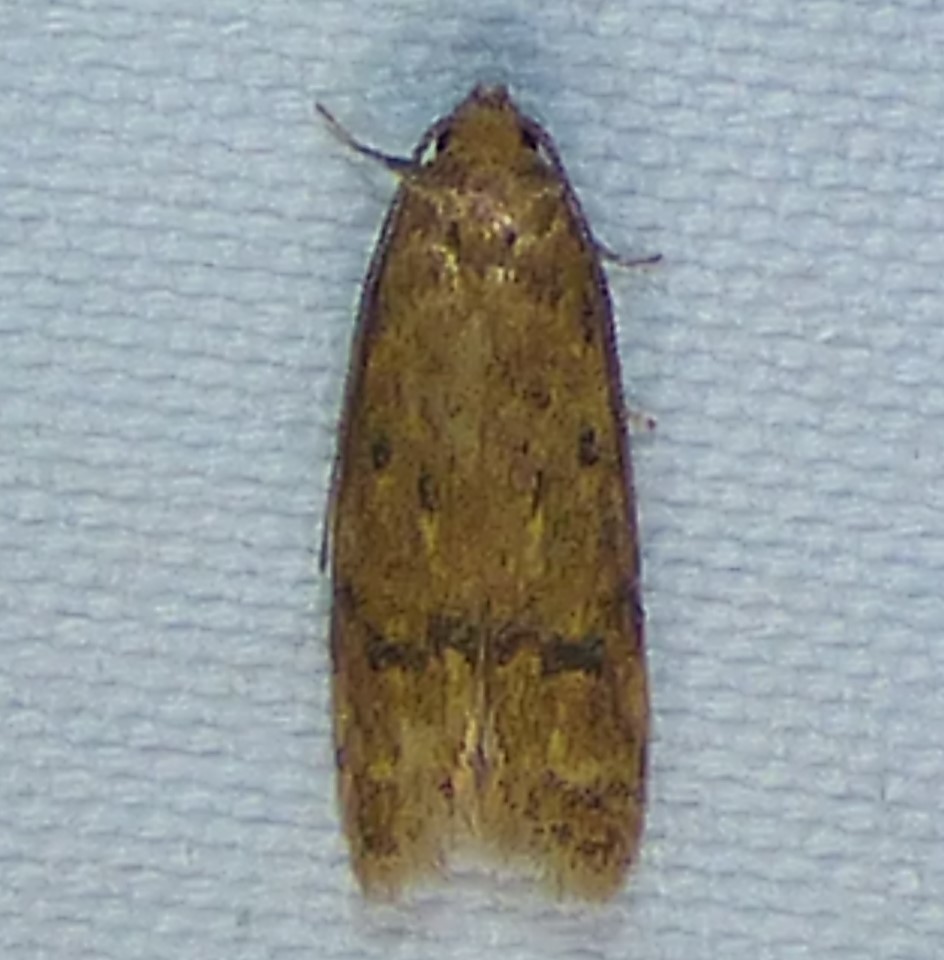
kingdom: Animalia
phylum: Arthropoda
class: Insecta
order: Lepidoptera
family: Autostichidae
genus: Gerdana
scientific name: Gerdana caritella
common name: Gerdana moth
